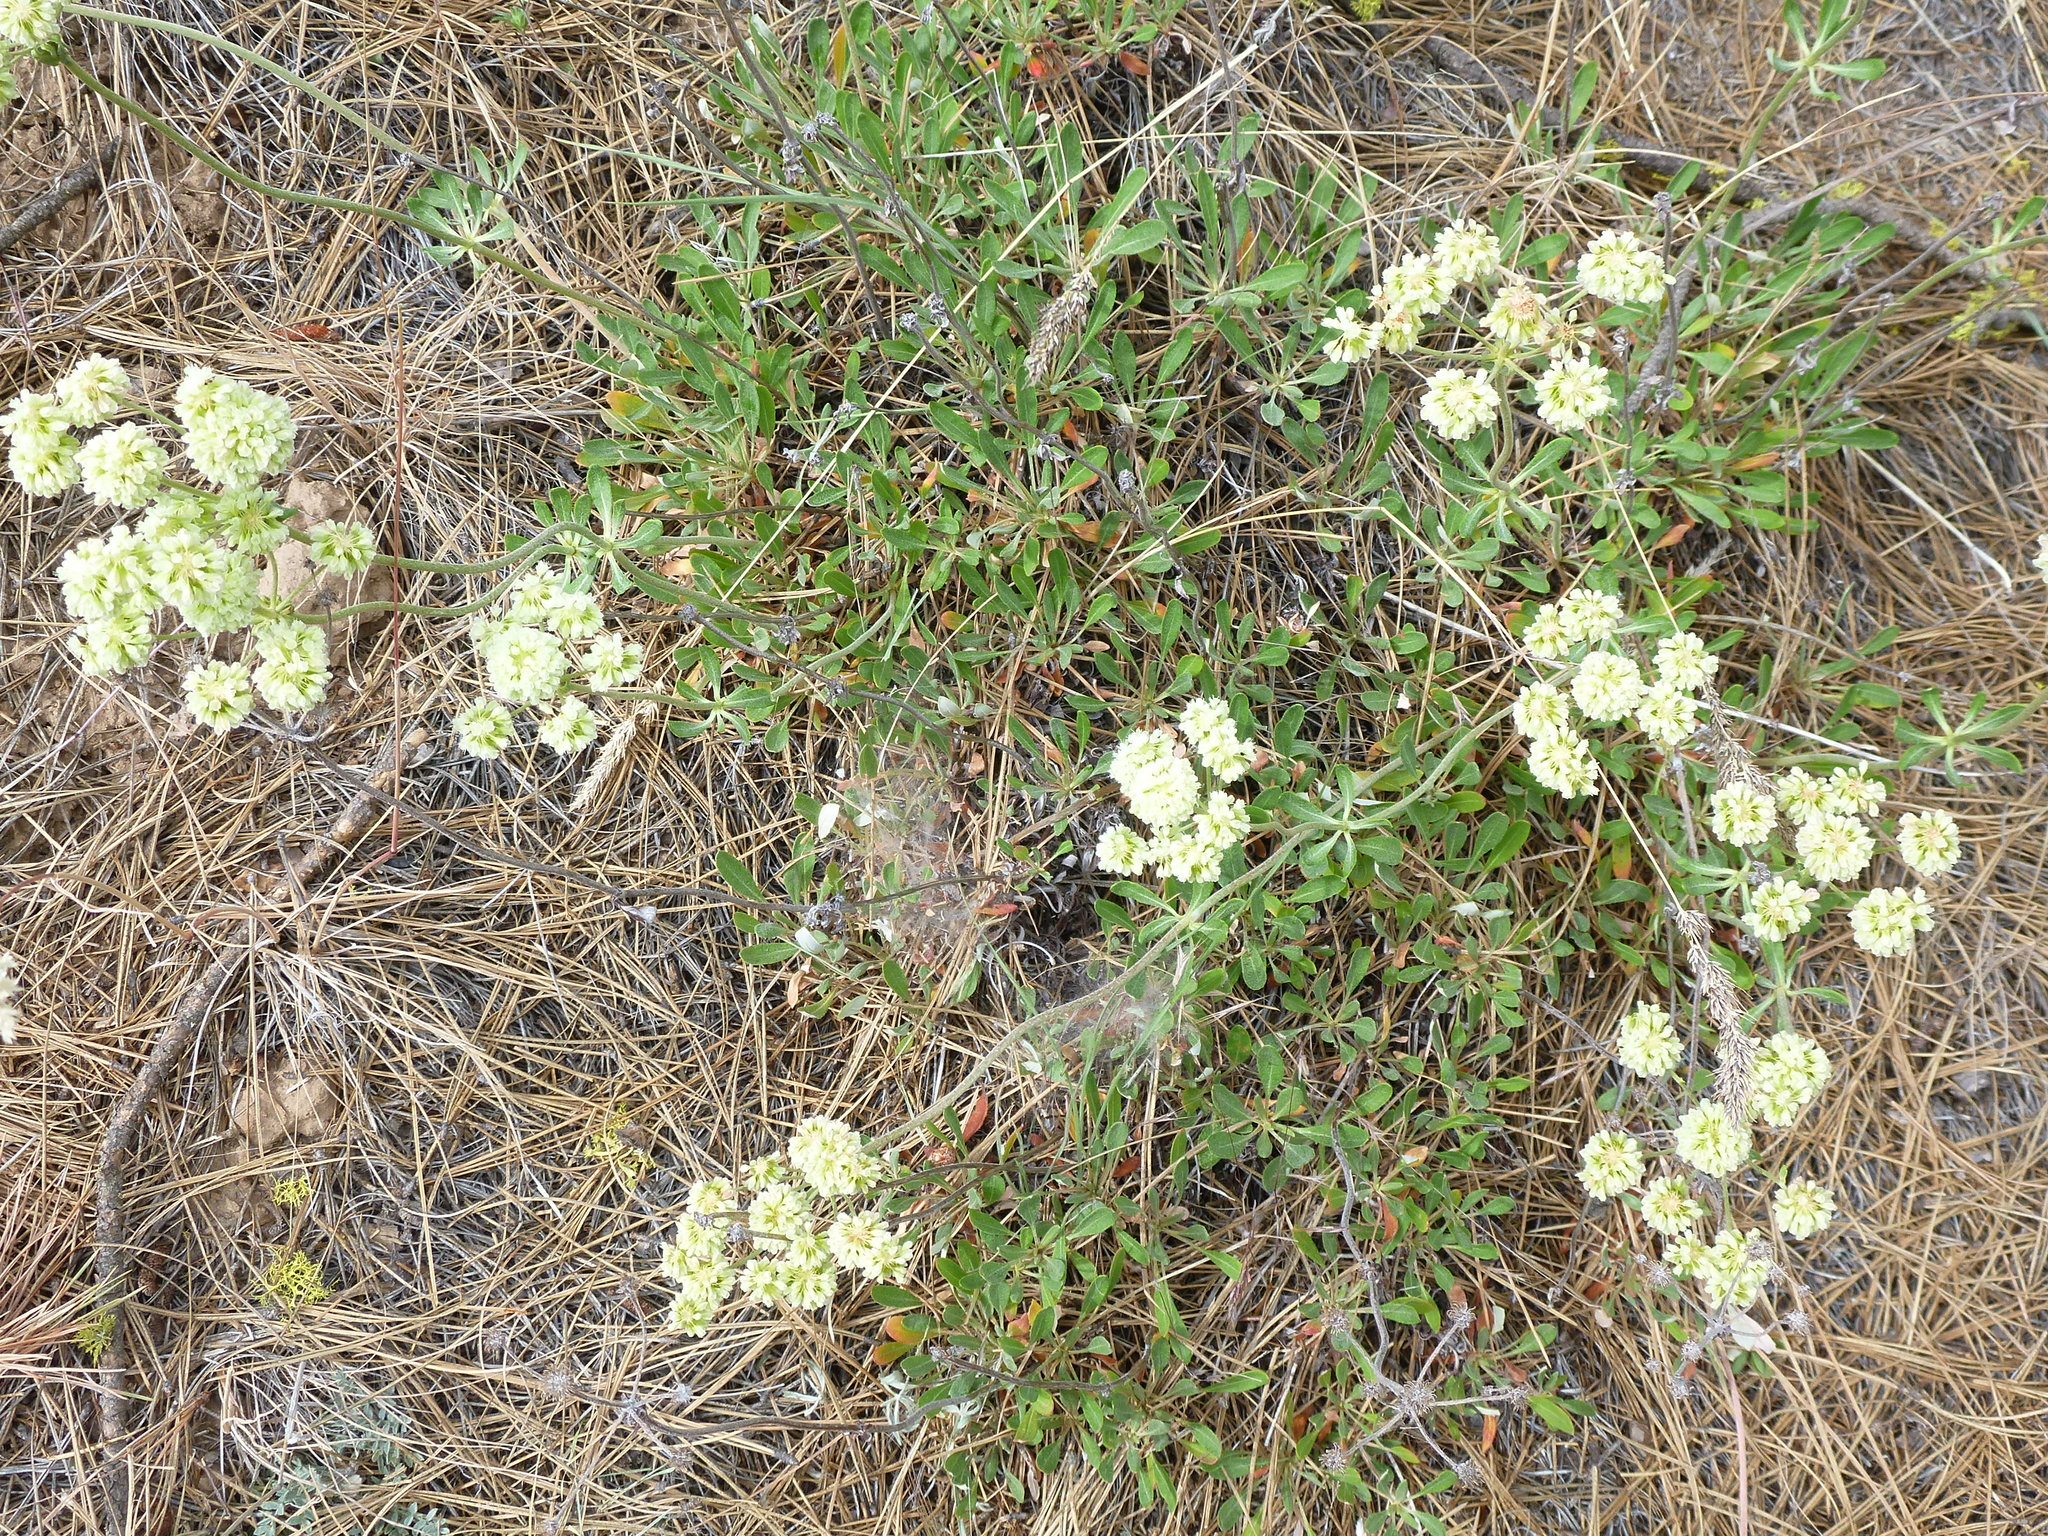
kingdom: Plantae
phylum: Tracheophyta
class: Magnoliopsida
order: Caryophyllales
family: Polygonaceae
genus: Eriogonum
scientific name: Eriogonum heracleoides
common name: Wyeth's buckwheat
